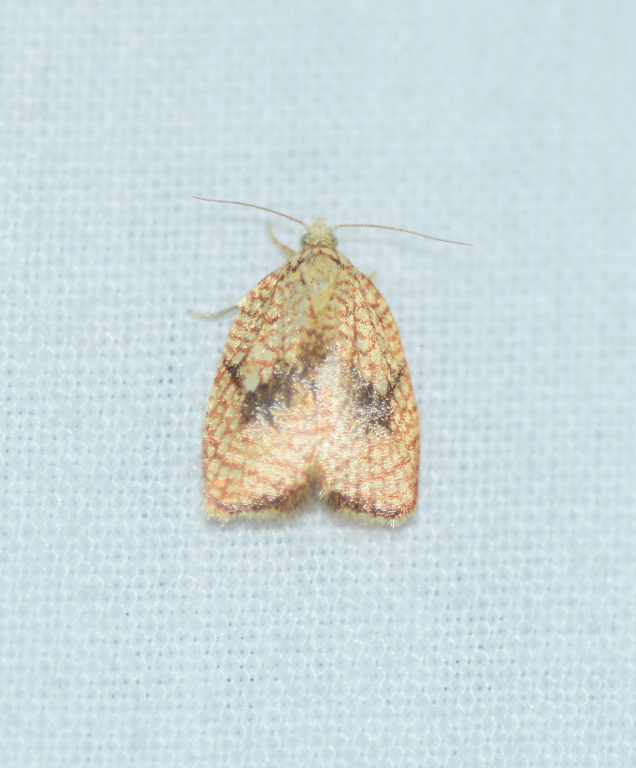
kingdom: Animalia
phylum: Arthropoda
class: Insecta
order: Lepidoptera
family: Tortricidae
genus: Acleris
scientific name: Acleris forsskaleana
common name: Maple button
